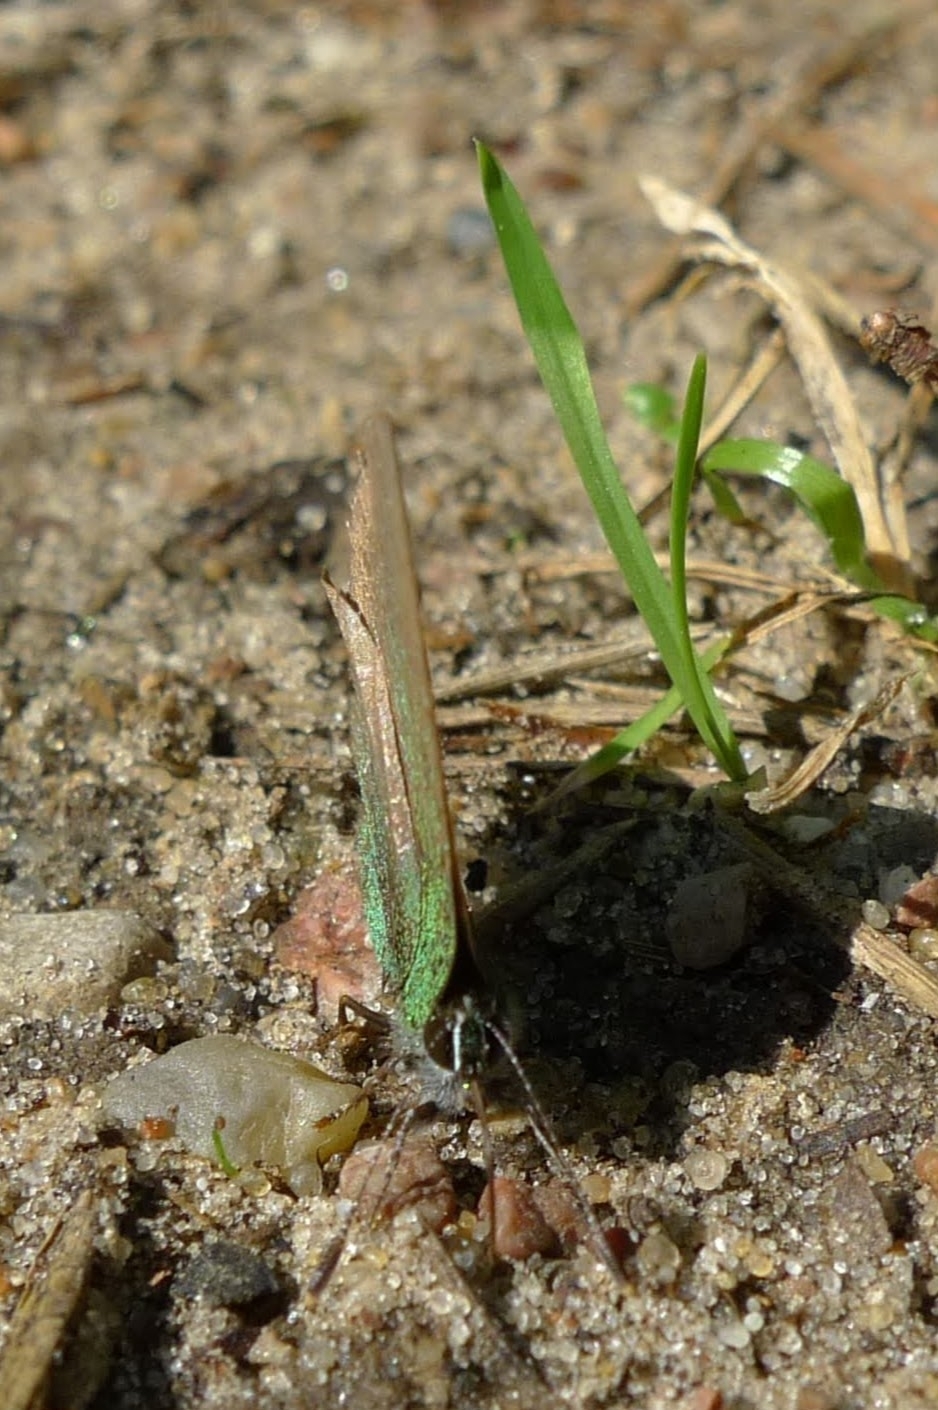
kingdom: Animalia
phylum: Arthropoda
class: Insecta
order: Lepidoptera
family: Lycaenidae
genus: Callophrys
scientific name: Callophrys rubi
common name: Green hairstreak
